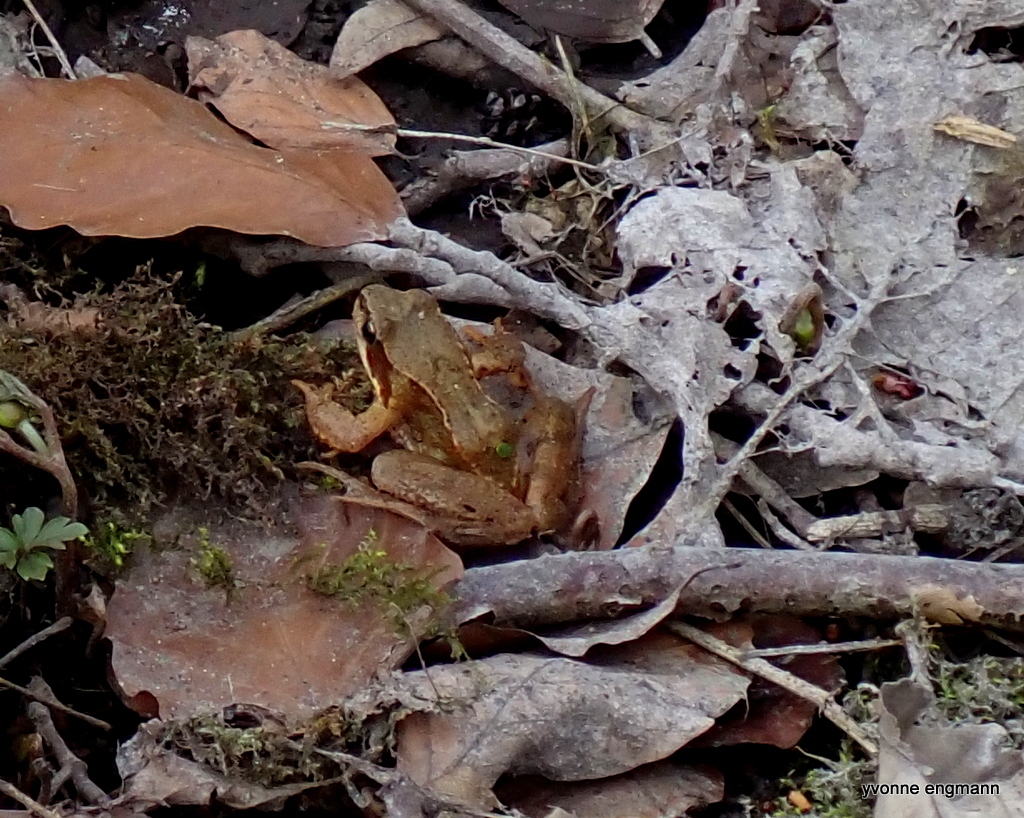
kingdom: Animalia
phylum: Chordata
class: Amphibia
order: Anura
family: Ranidae
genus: Rana
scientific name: Rana temporaria
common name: Common frog
